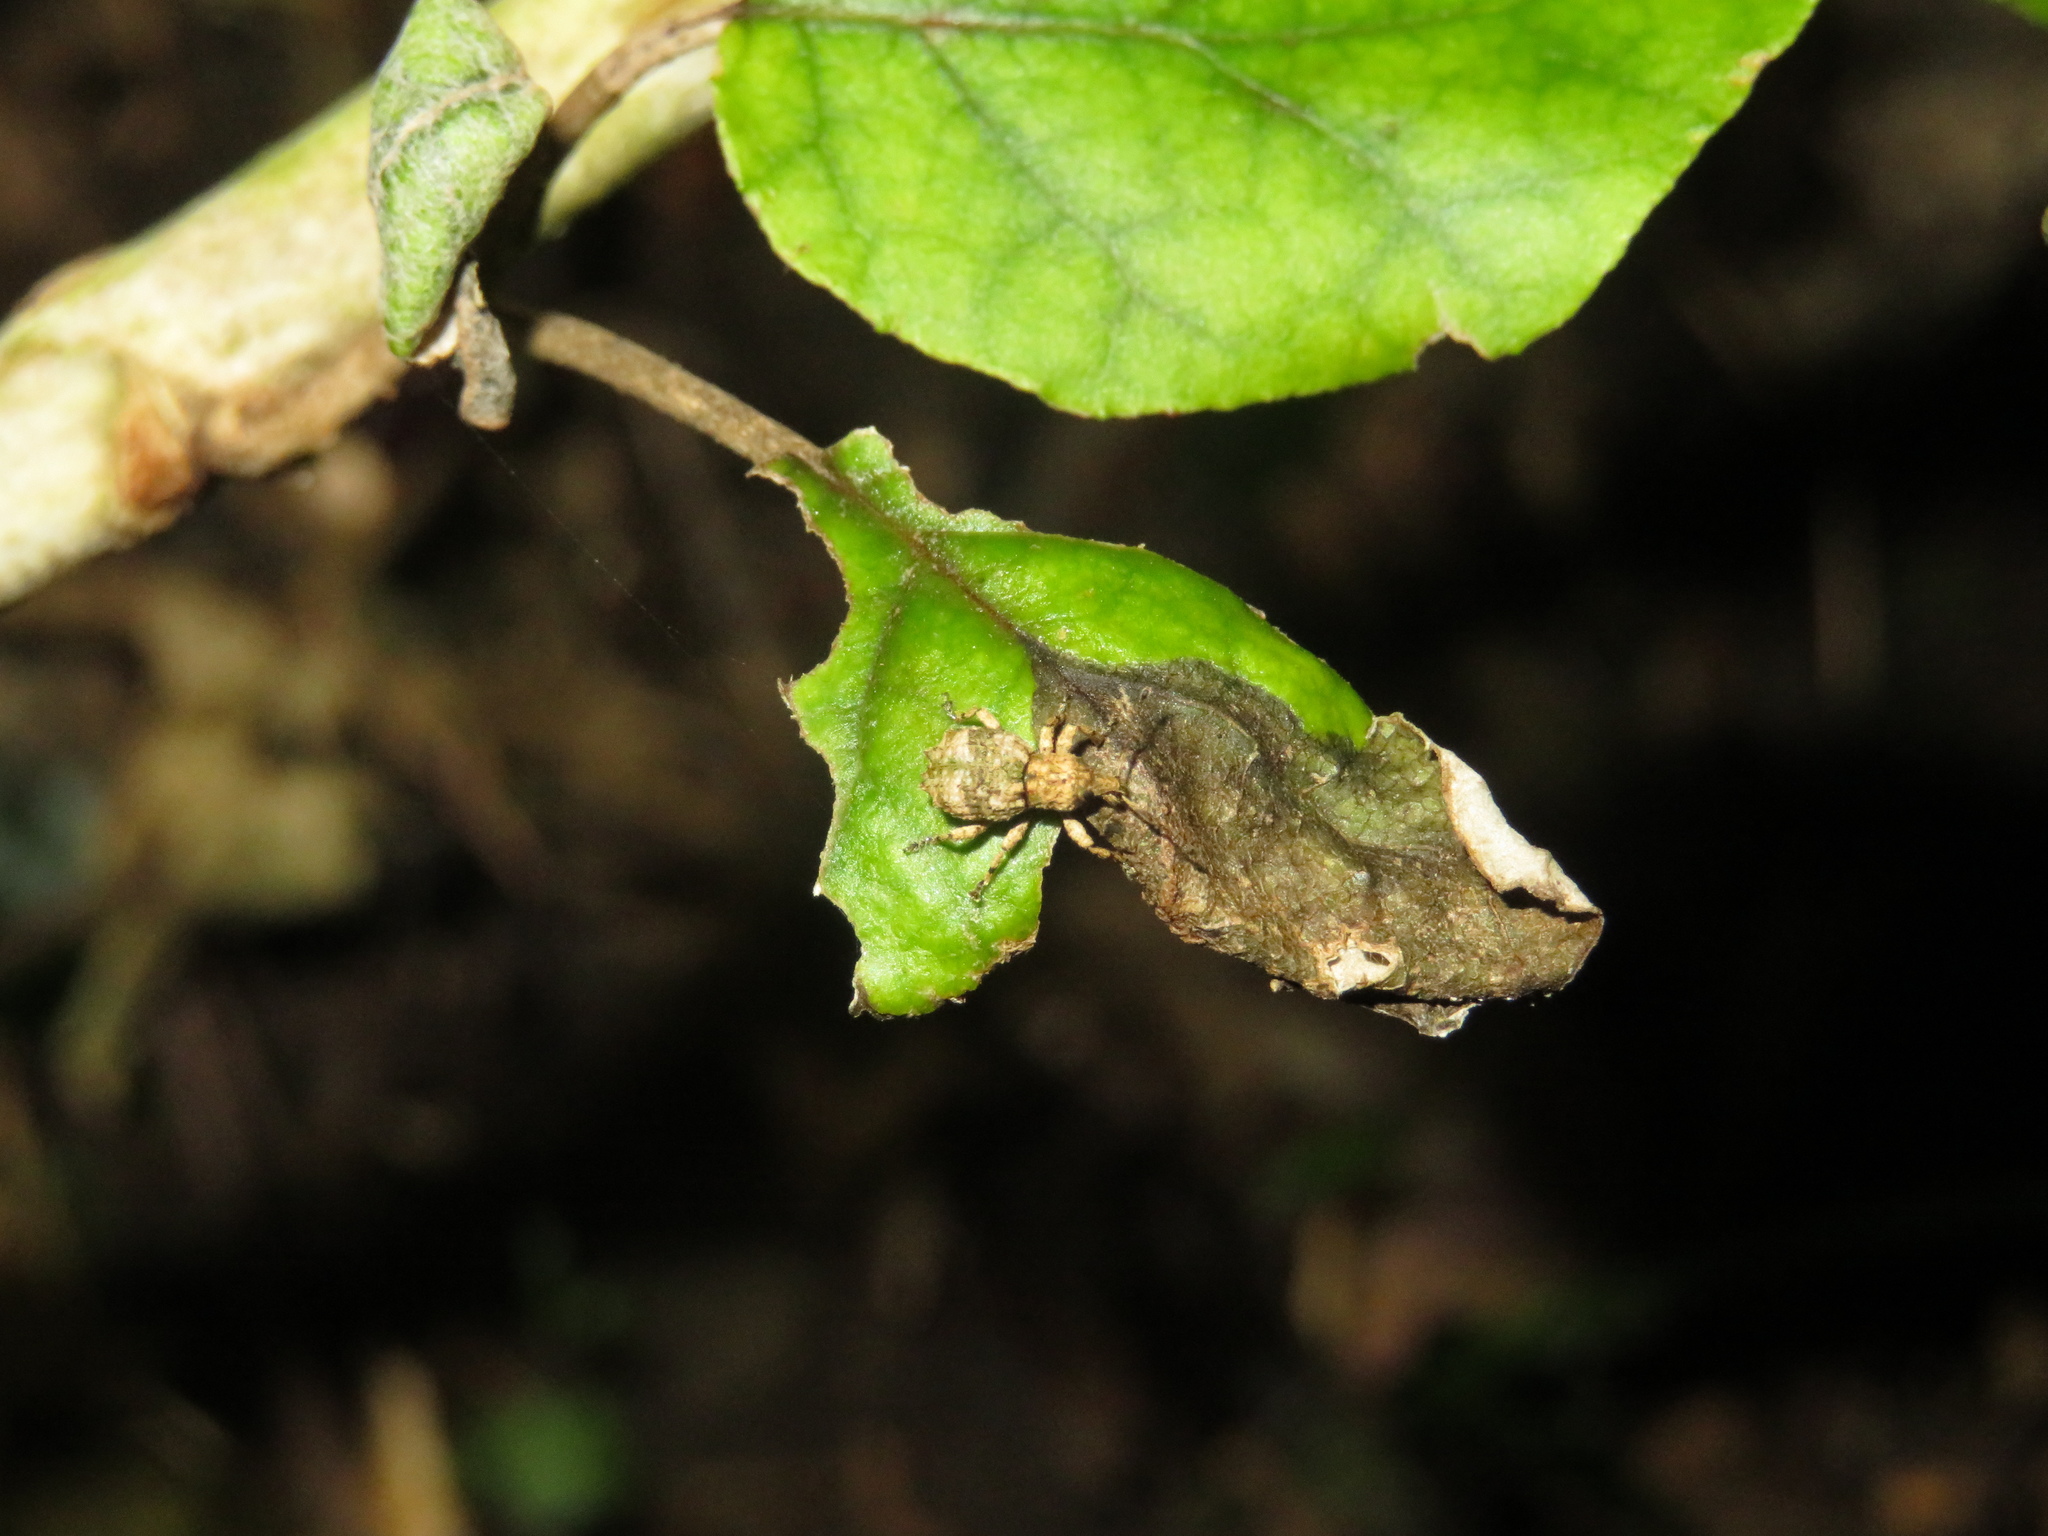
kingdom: Animalia
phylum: Arthropoda
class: Insecta
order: Coleoptera
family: Curculionidae
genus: Brachyolus
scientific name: Brachyolus punctatus
